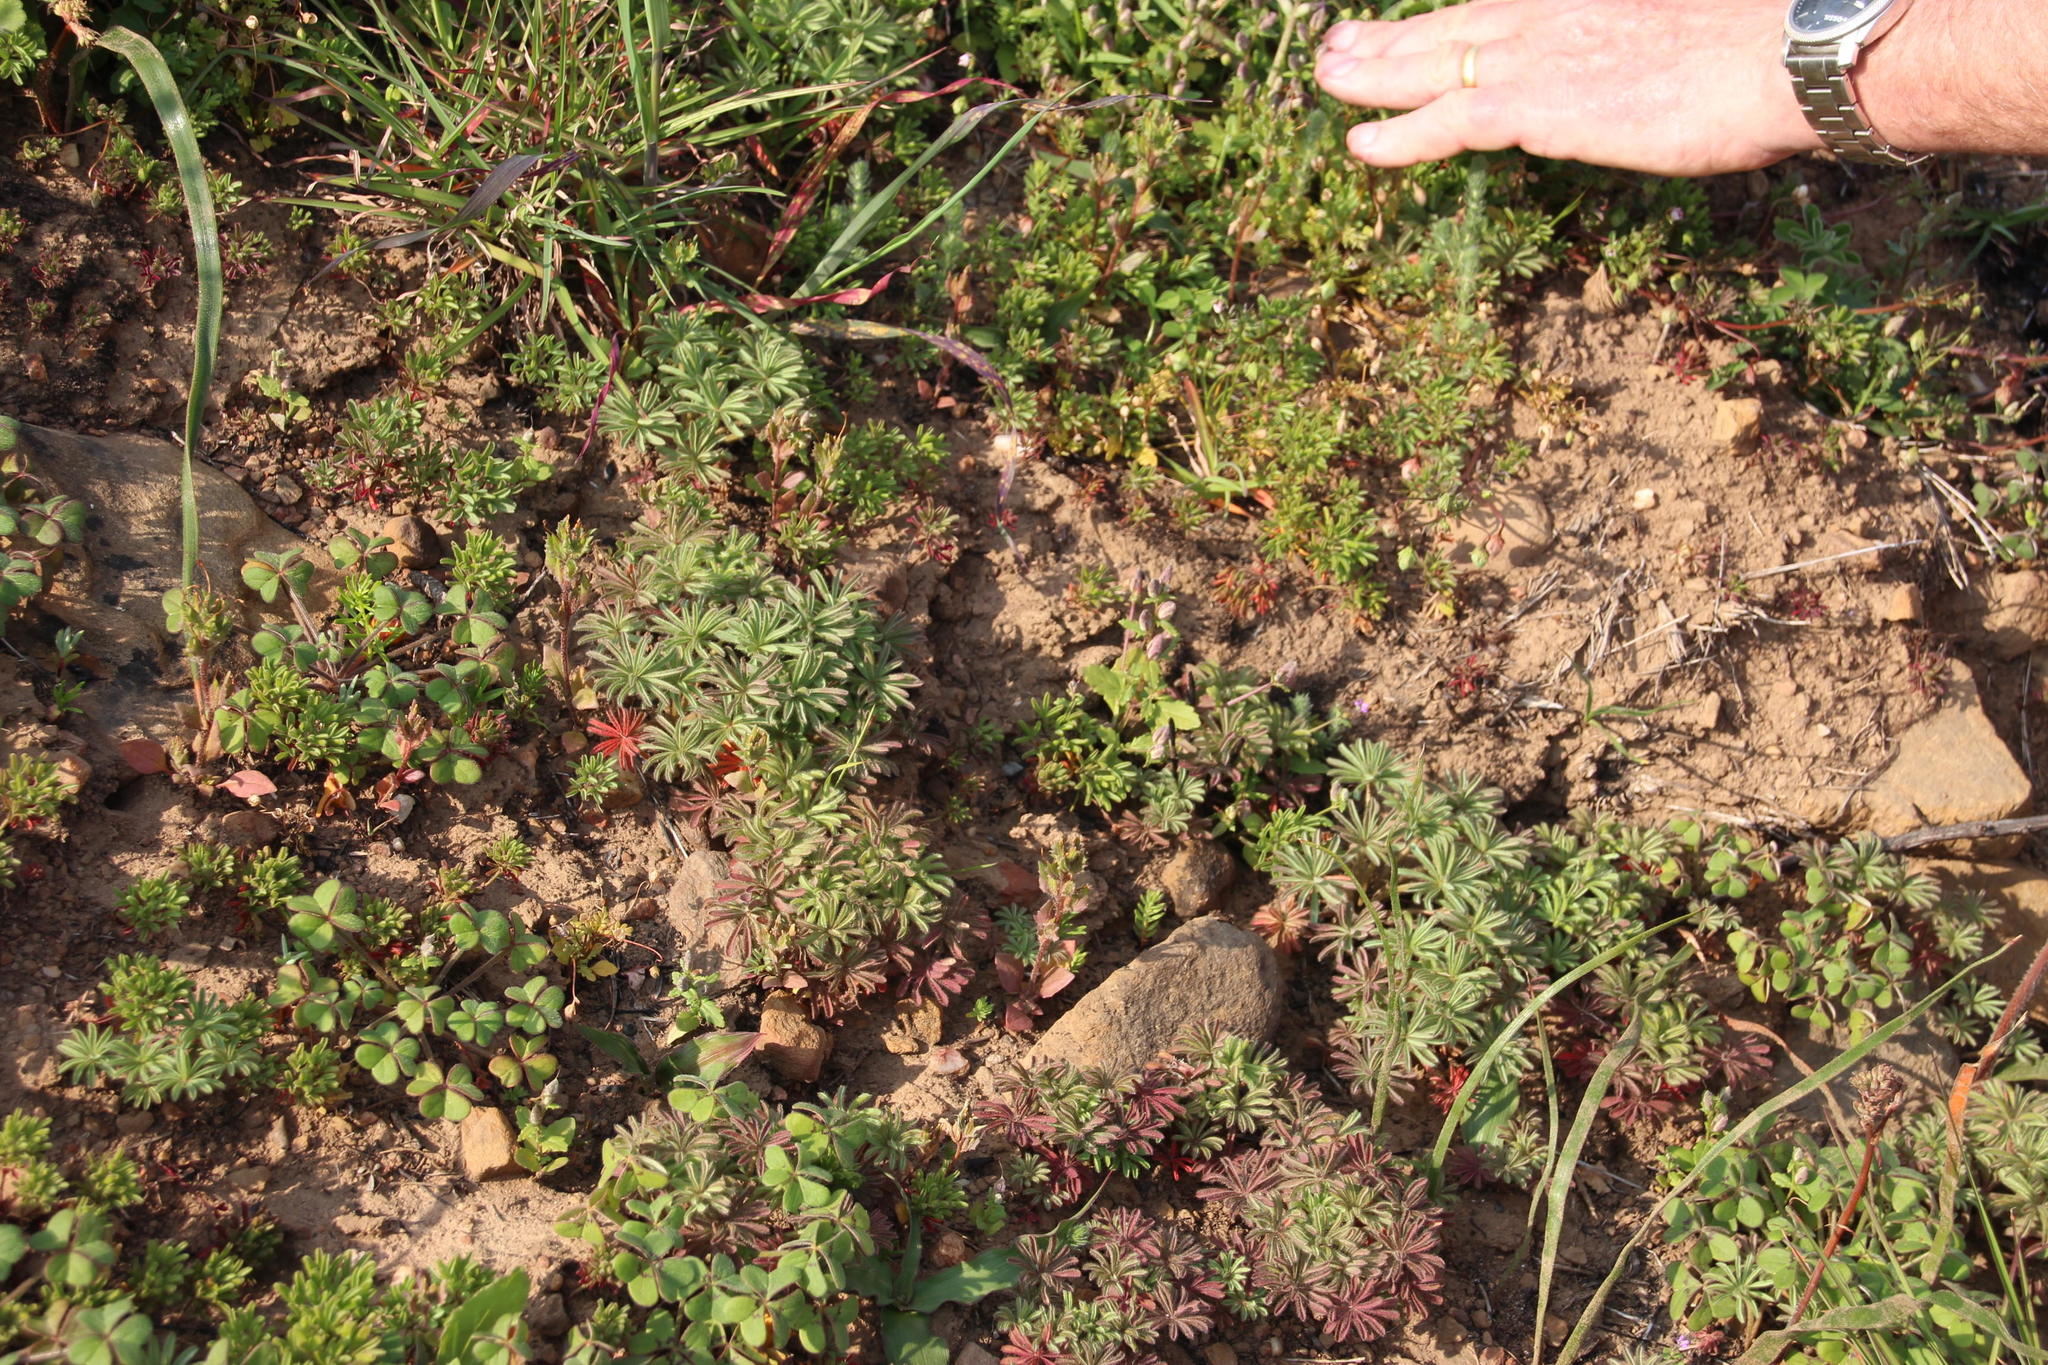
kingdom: Plantae
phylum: Tracheophyta
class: Magnoliopsida
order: Oxalidales
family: Oxalidaceae
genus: Oxalis
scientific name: Oxalis tomentosa
